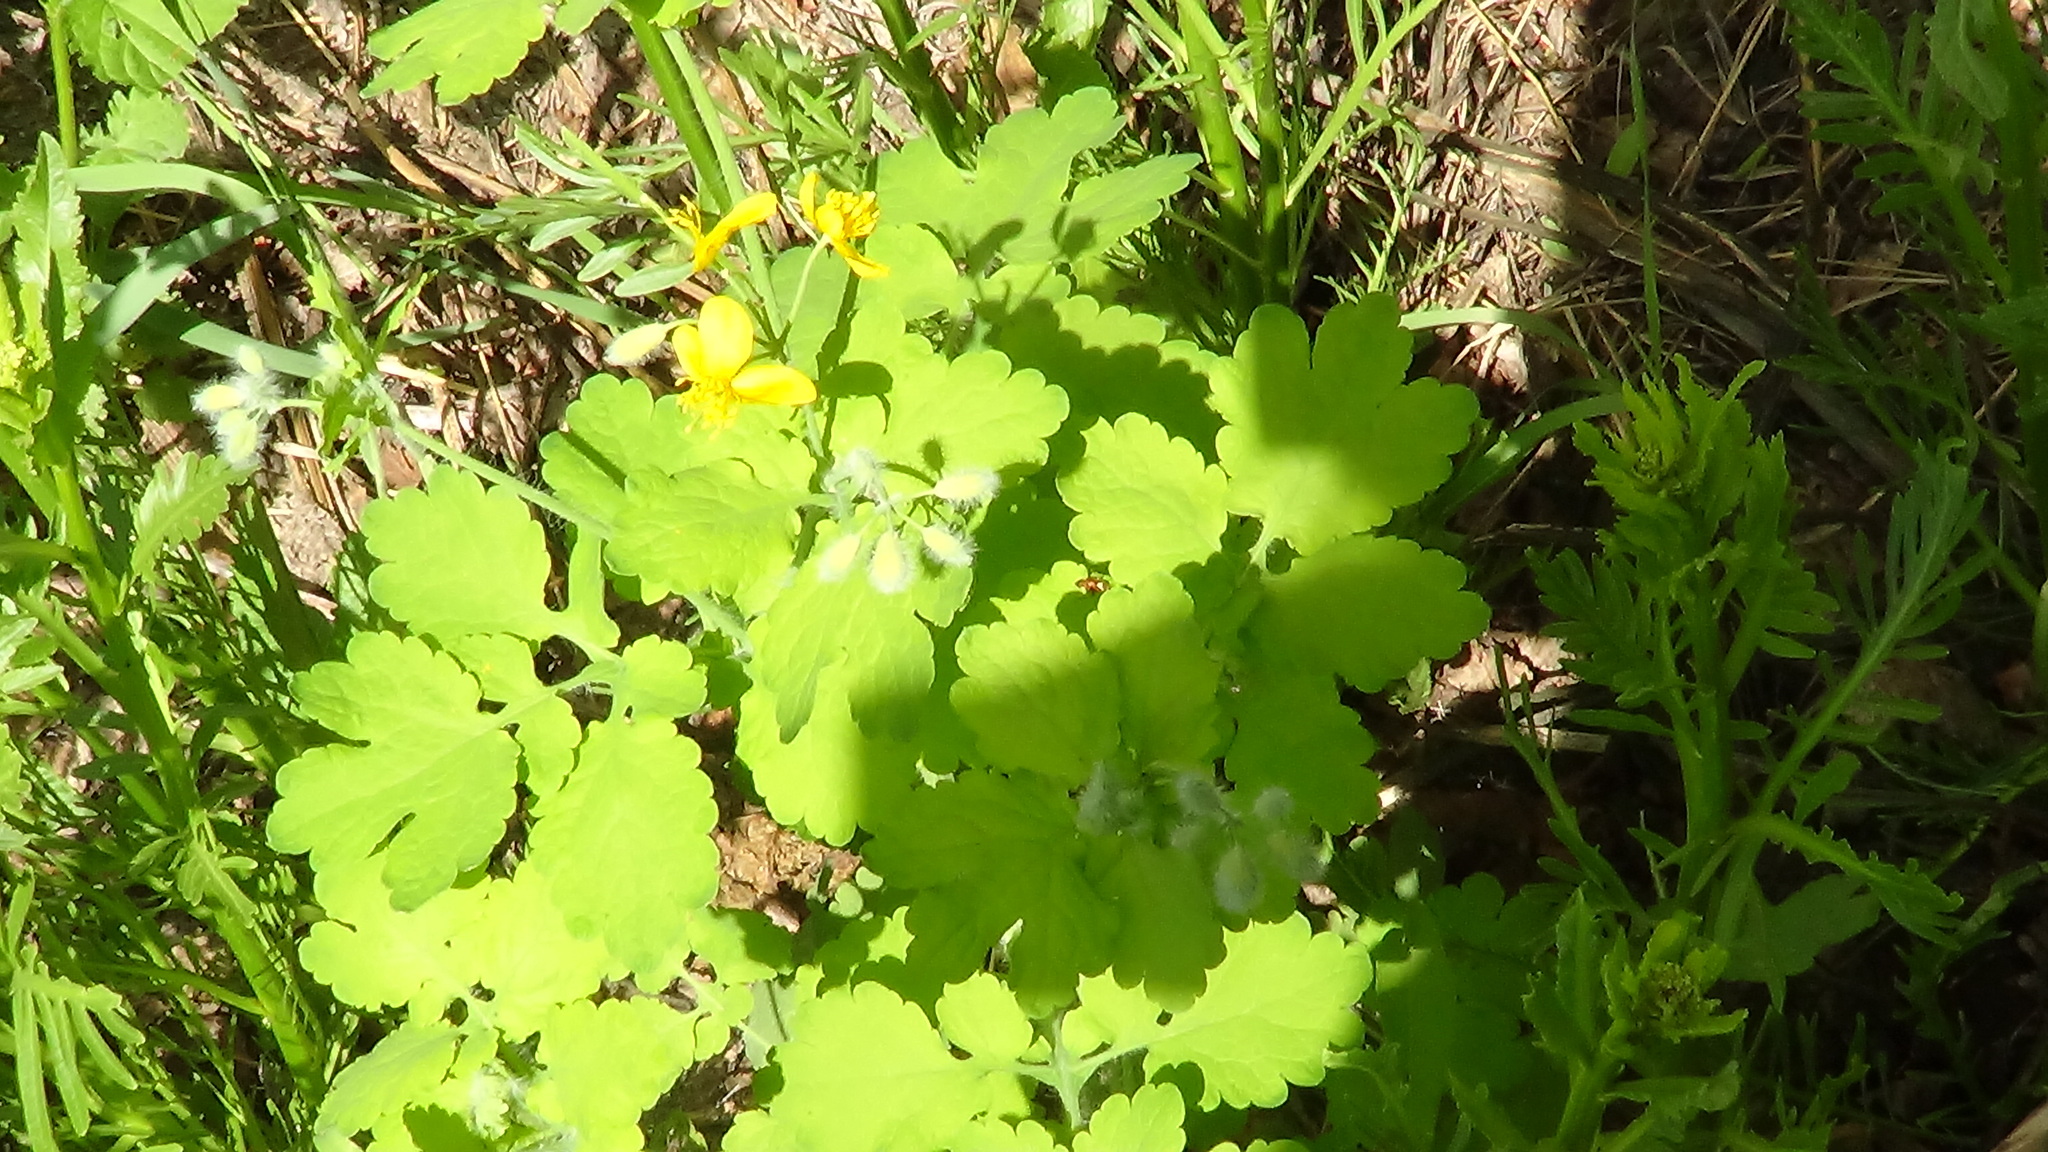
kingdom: Plantae
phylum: Tracheophyta
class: Magnoliopsida
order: Ranunculales
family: Papaveraceae
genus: Chelidonium
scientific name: Chelidonium majus
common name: Greater celandine
